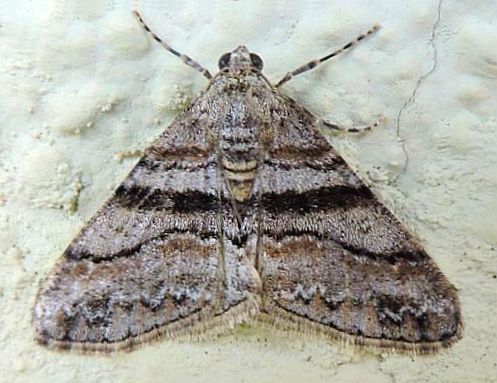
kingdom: Animalia
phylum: Arthropoda
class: Insecta
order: Lepidoptera
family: Geometridae
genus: Prionomelia
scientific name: Prionomelia spododea
